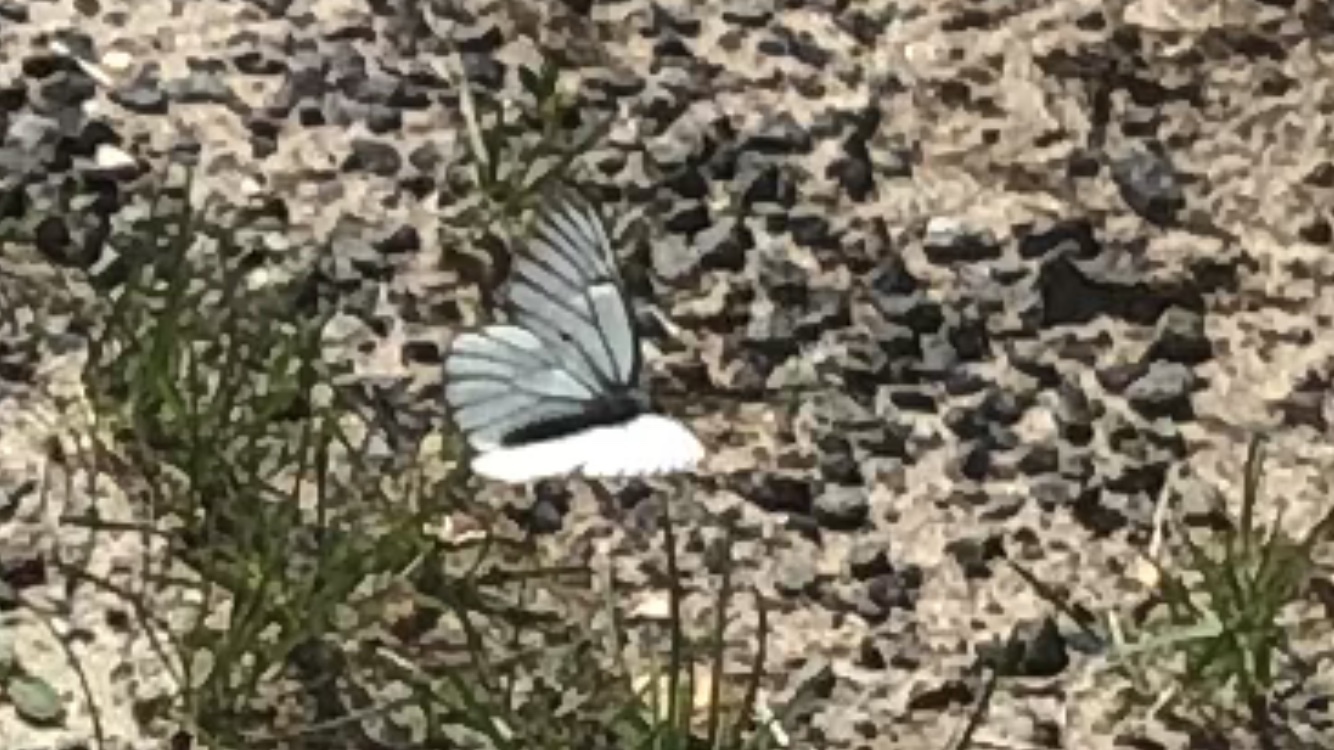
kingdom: Animalia
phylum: Arthropoda
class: Insecta
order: Lepidoptera
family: Pieridae
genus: Aporia
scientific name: Aporia crataegi
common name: Black-veined white
